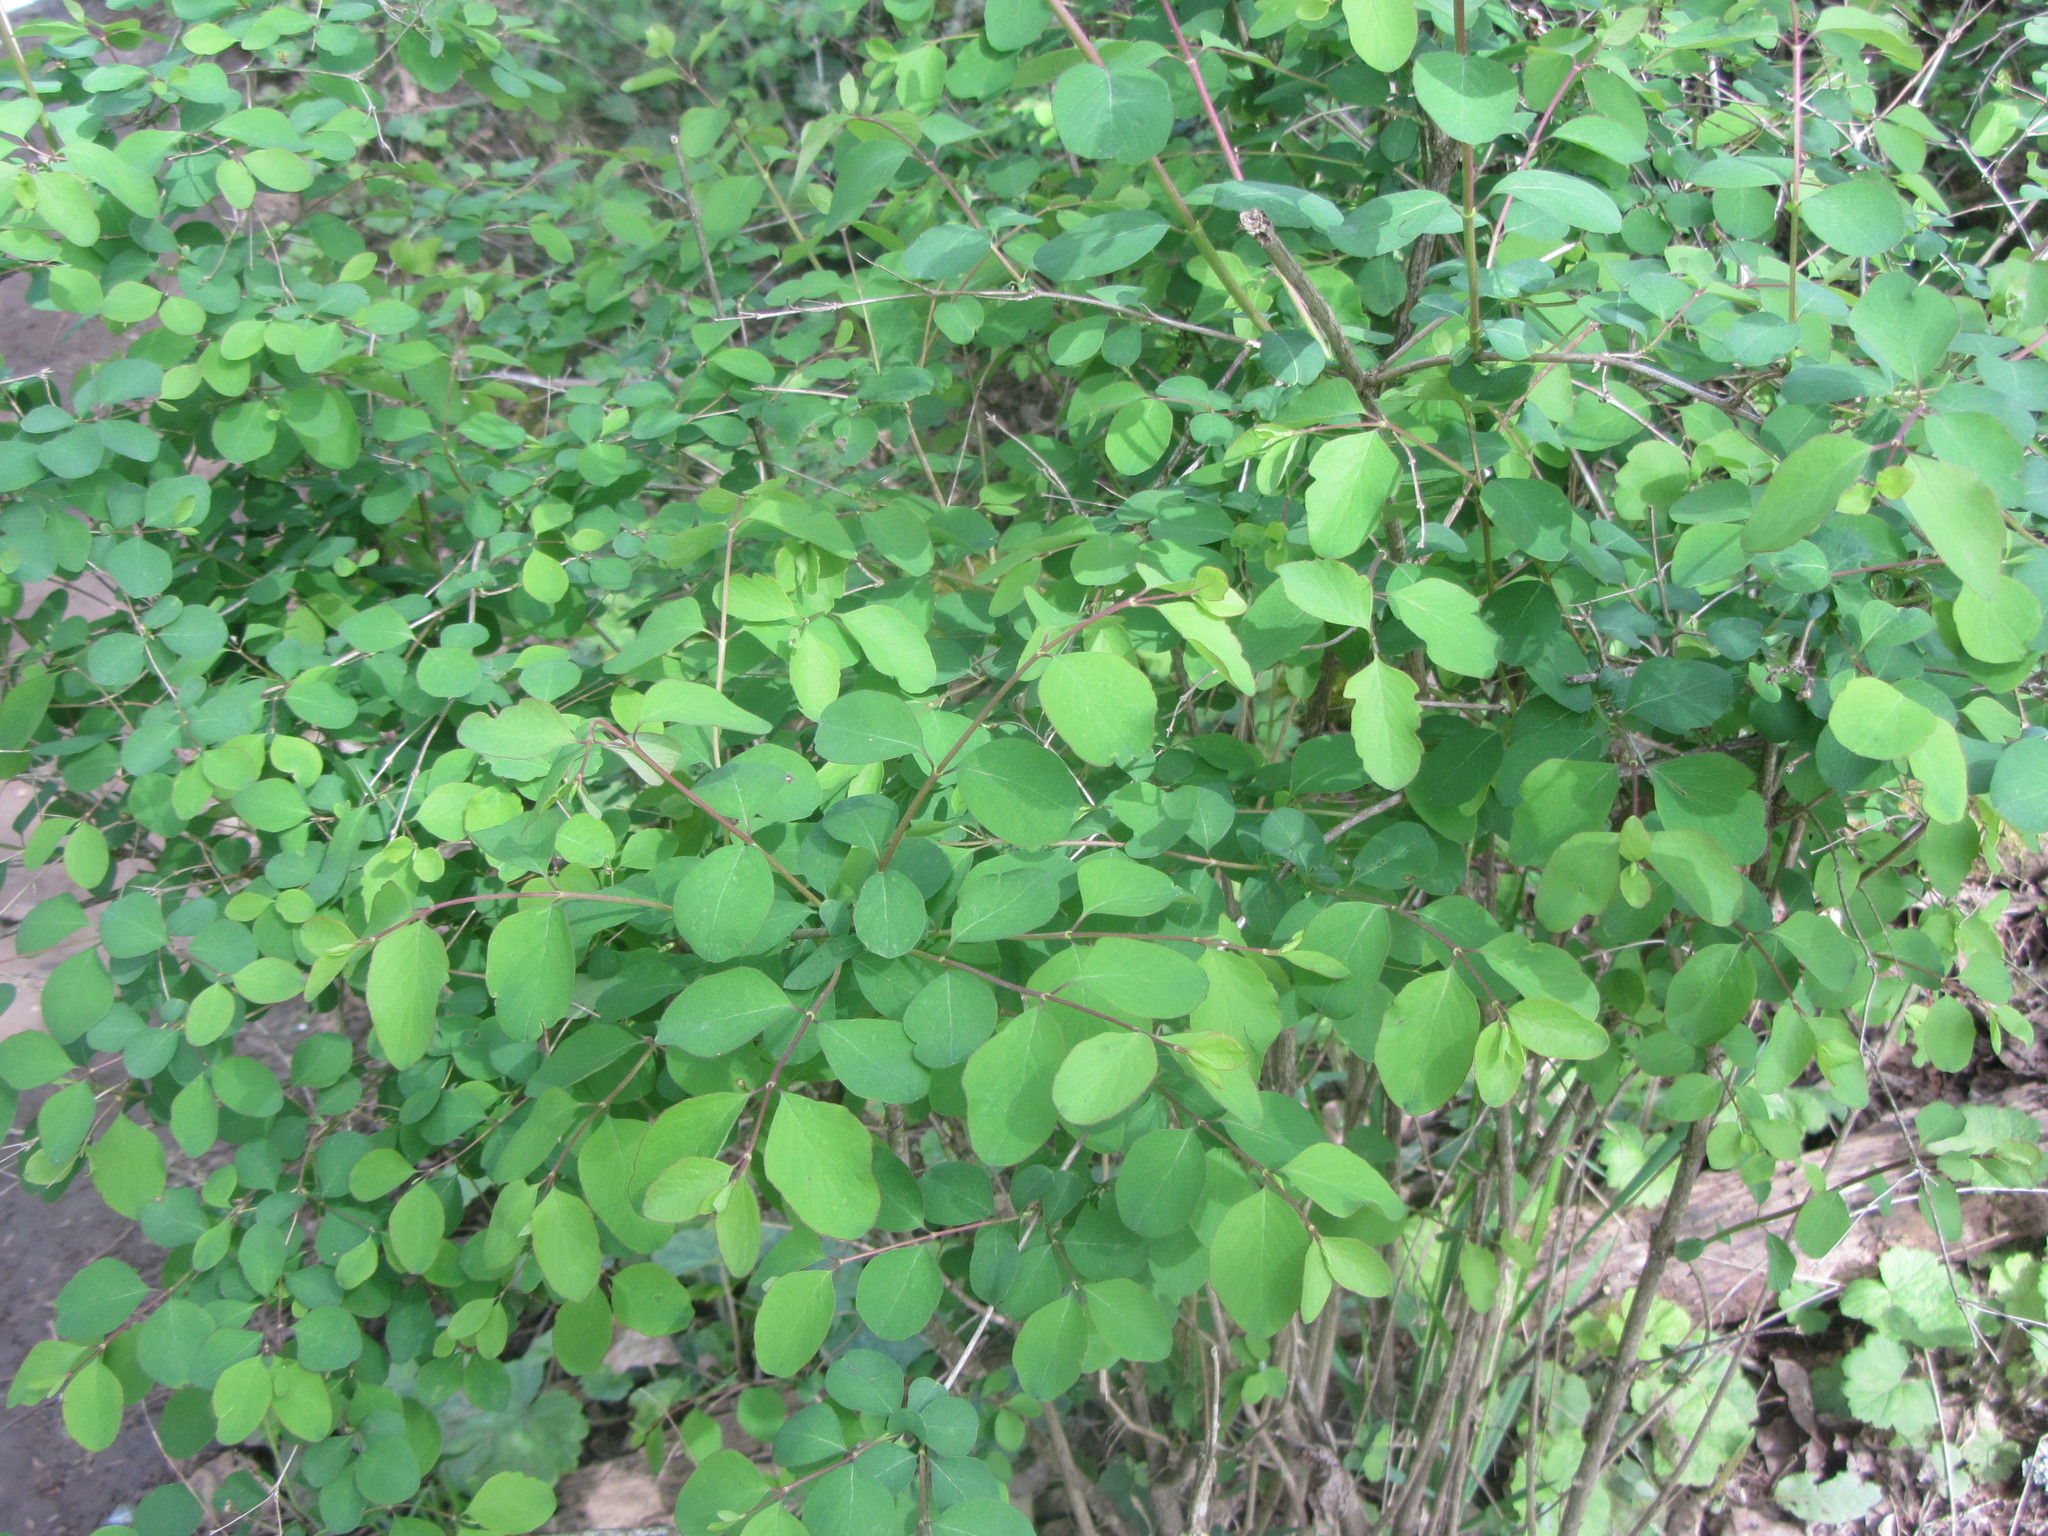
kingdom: Plantae
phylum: Tracheophyta
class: Magnoliopsida
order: Dipsacales
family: Caprifoliaceae
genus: Symphoricarpos
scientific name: Symphoricarpos albus
